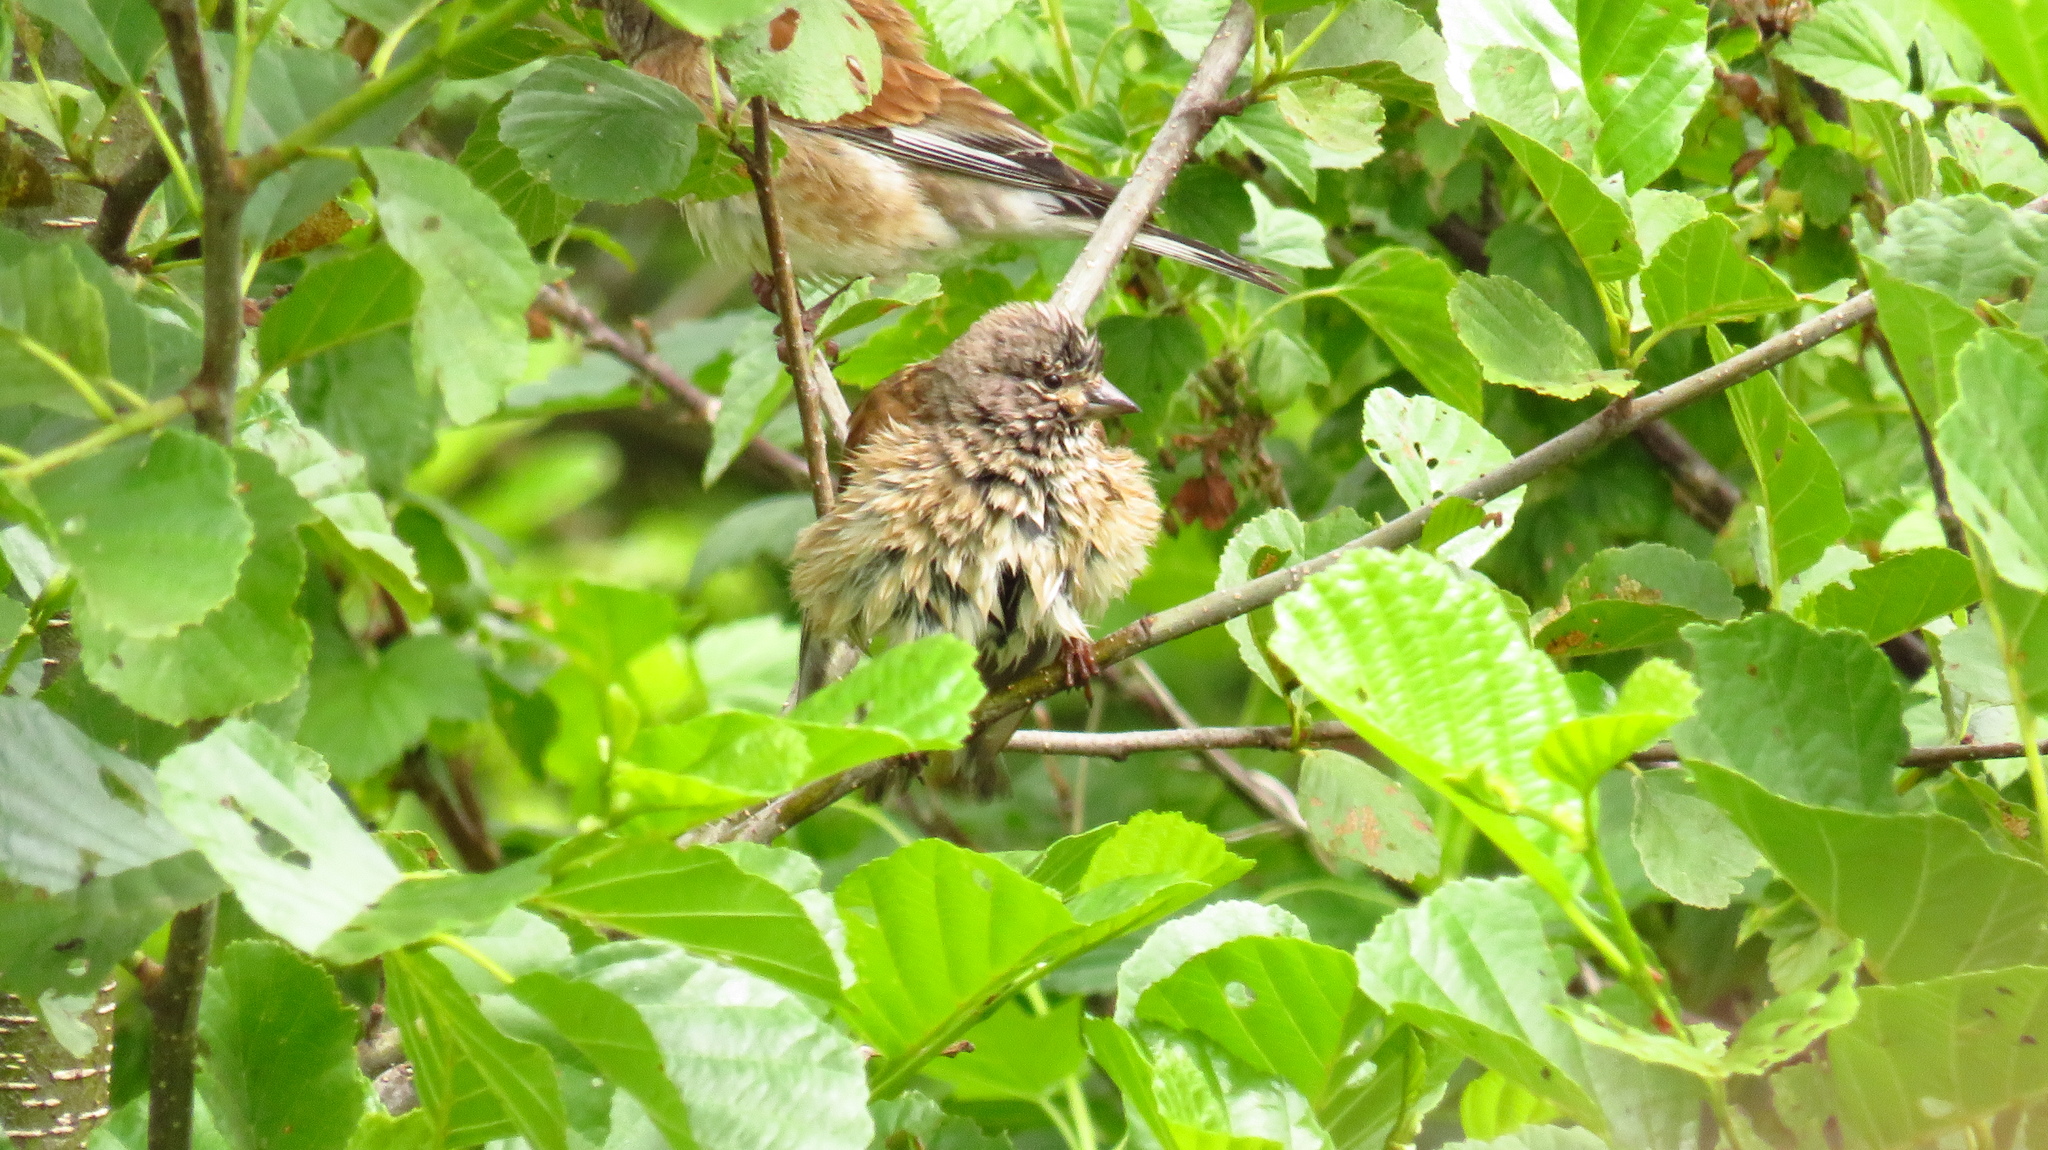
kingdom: Animalia
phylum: Chordata
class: Aves
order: Passeriformes
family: Fringillidae
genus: Linaria
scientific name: Linaria cannabina
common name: Common linnet
